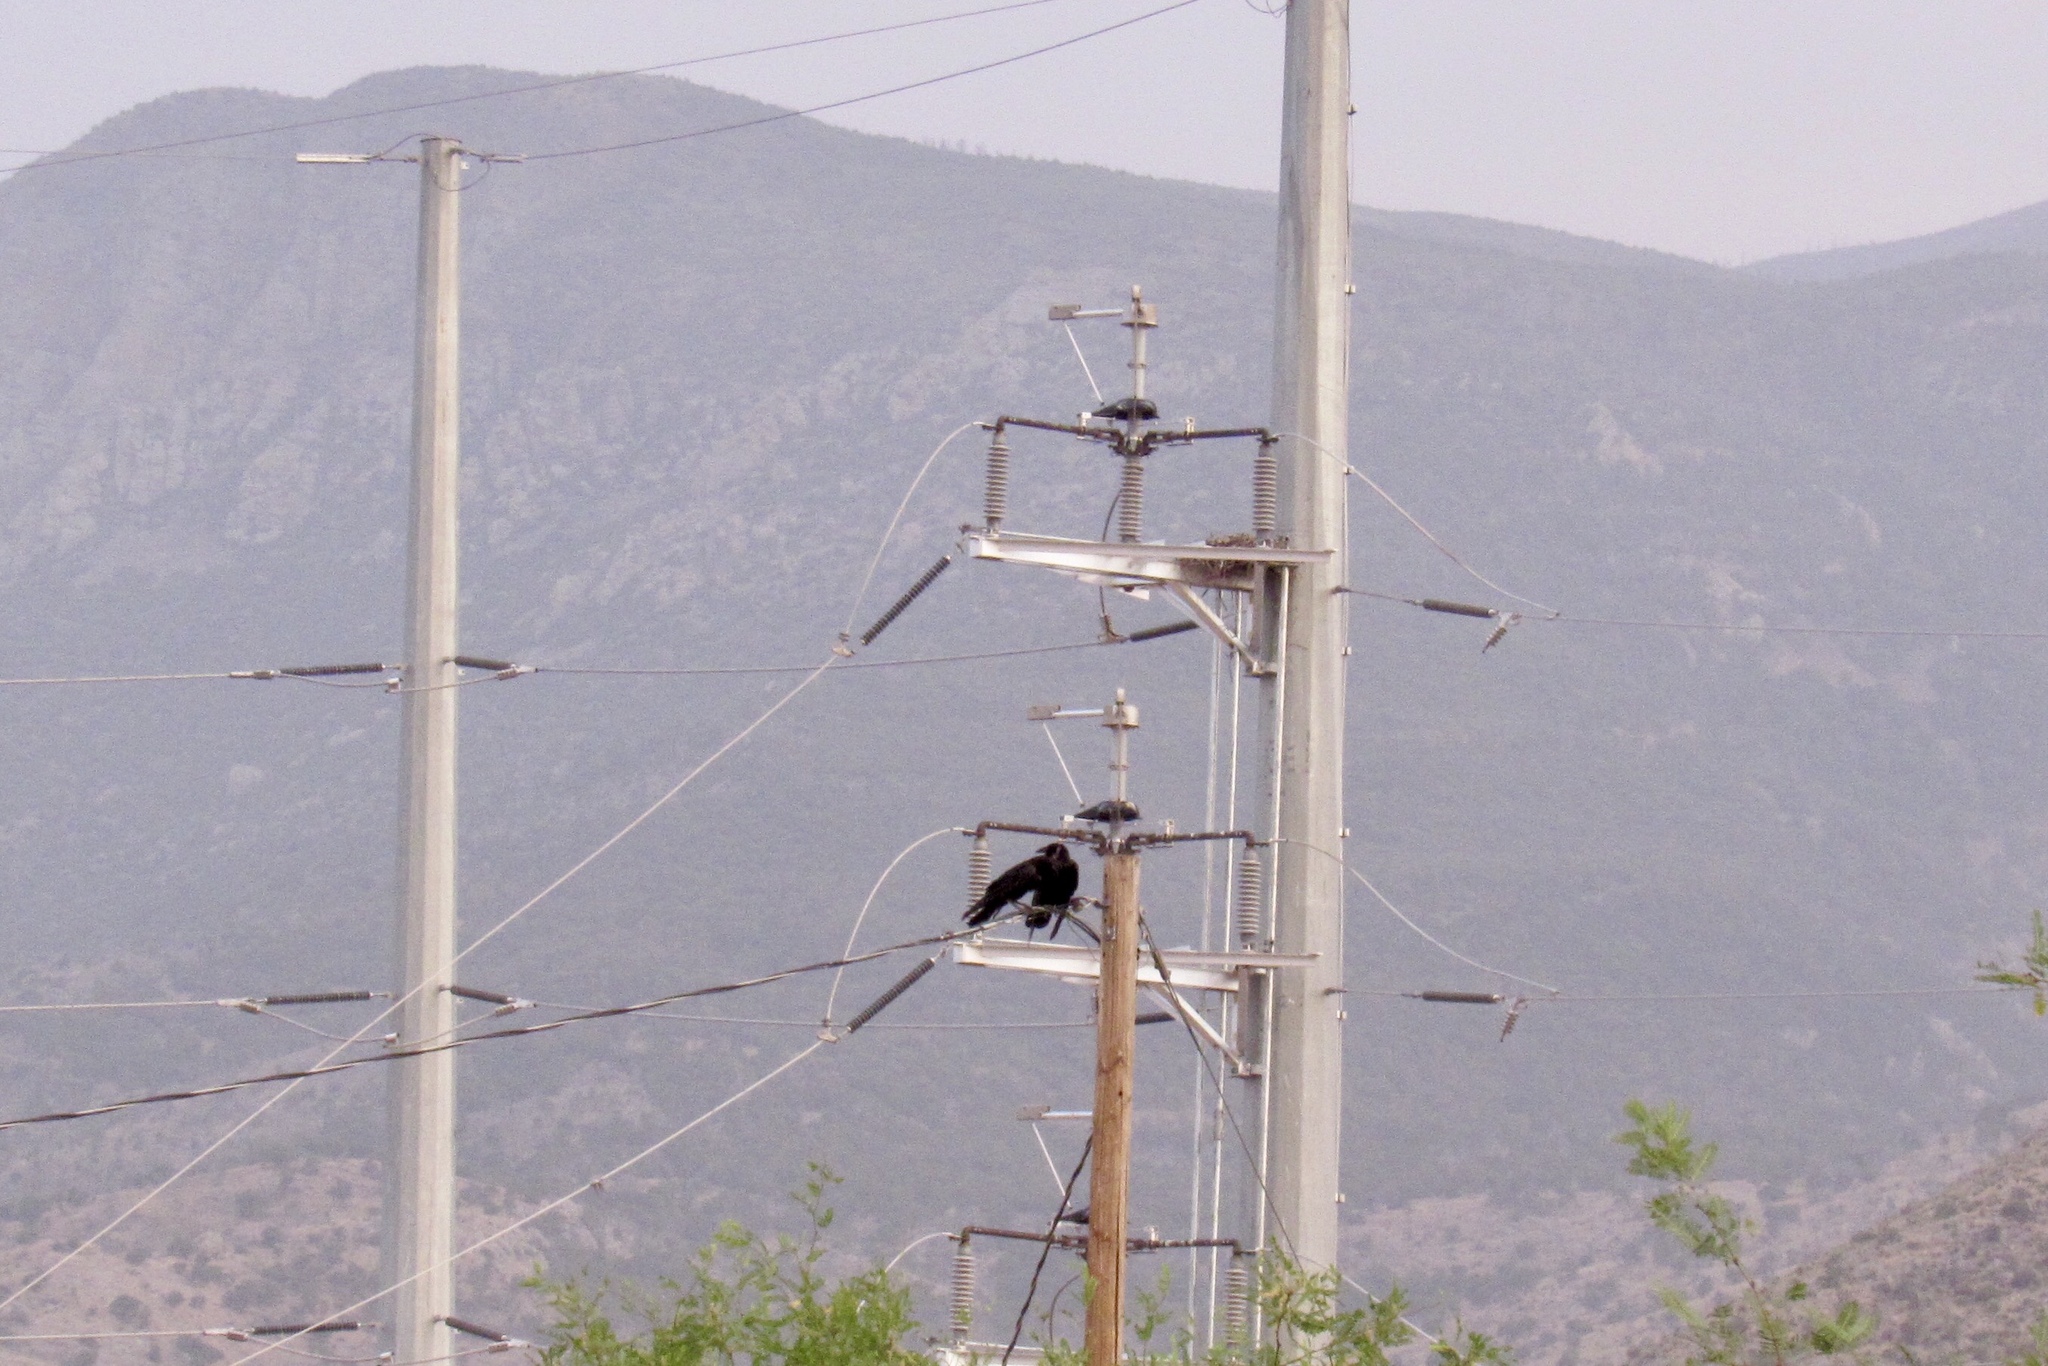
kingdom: Animalia
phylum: Chordata
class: Aves
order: Passeriformes
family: Corvidae
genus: Corvus
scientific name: Corvus corax
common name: Common raven
